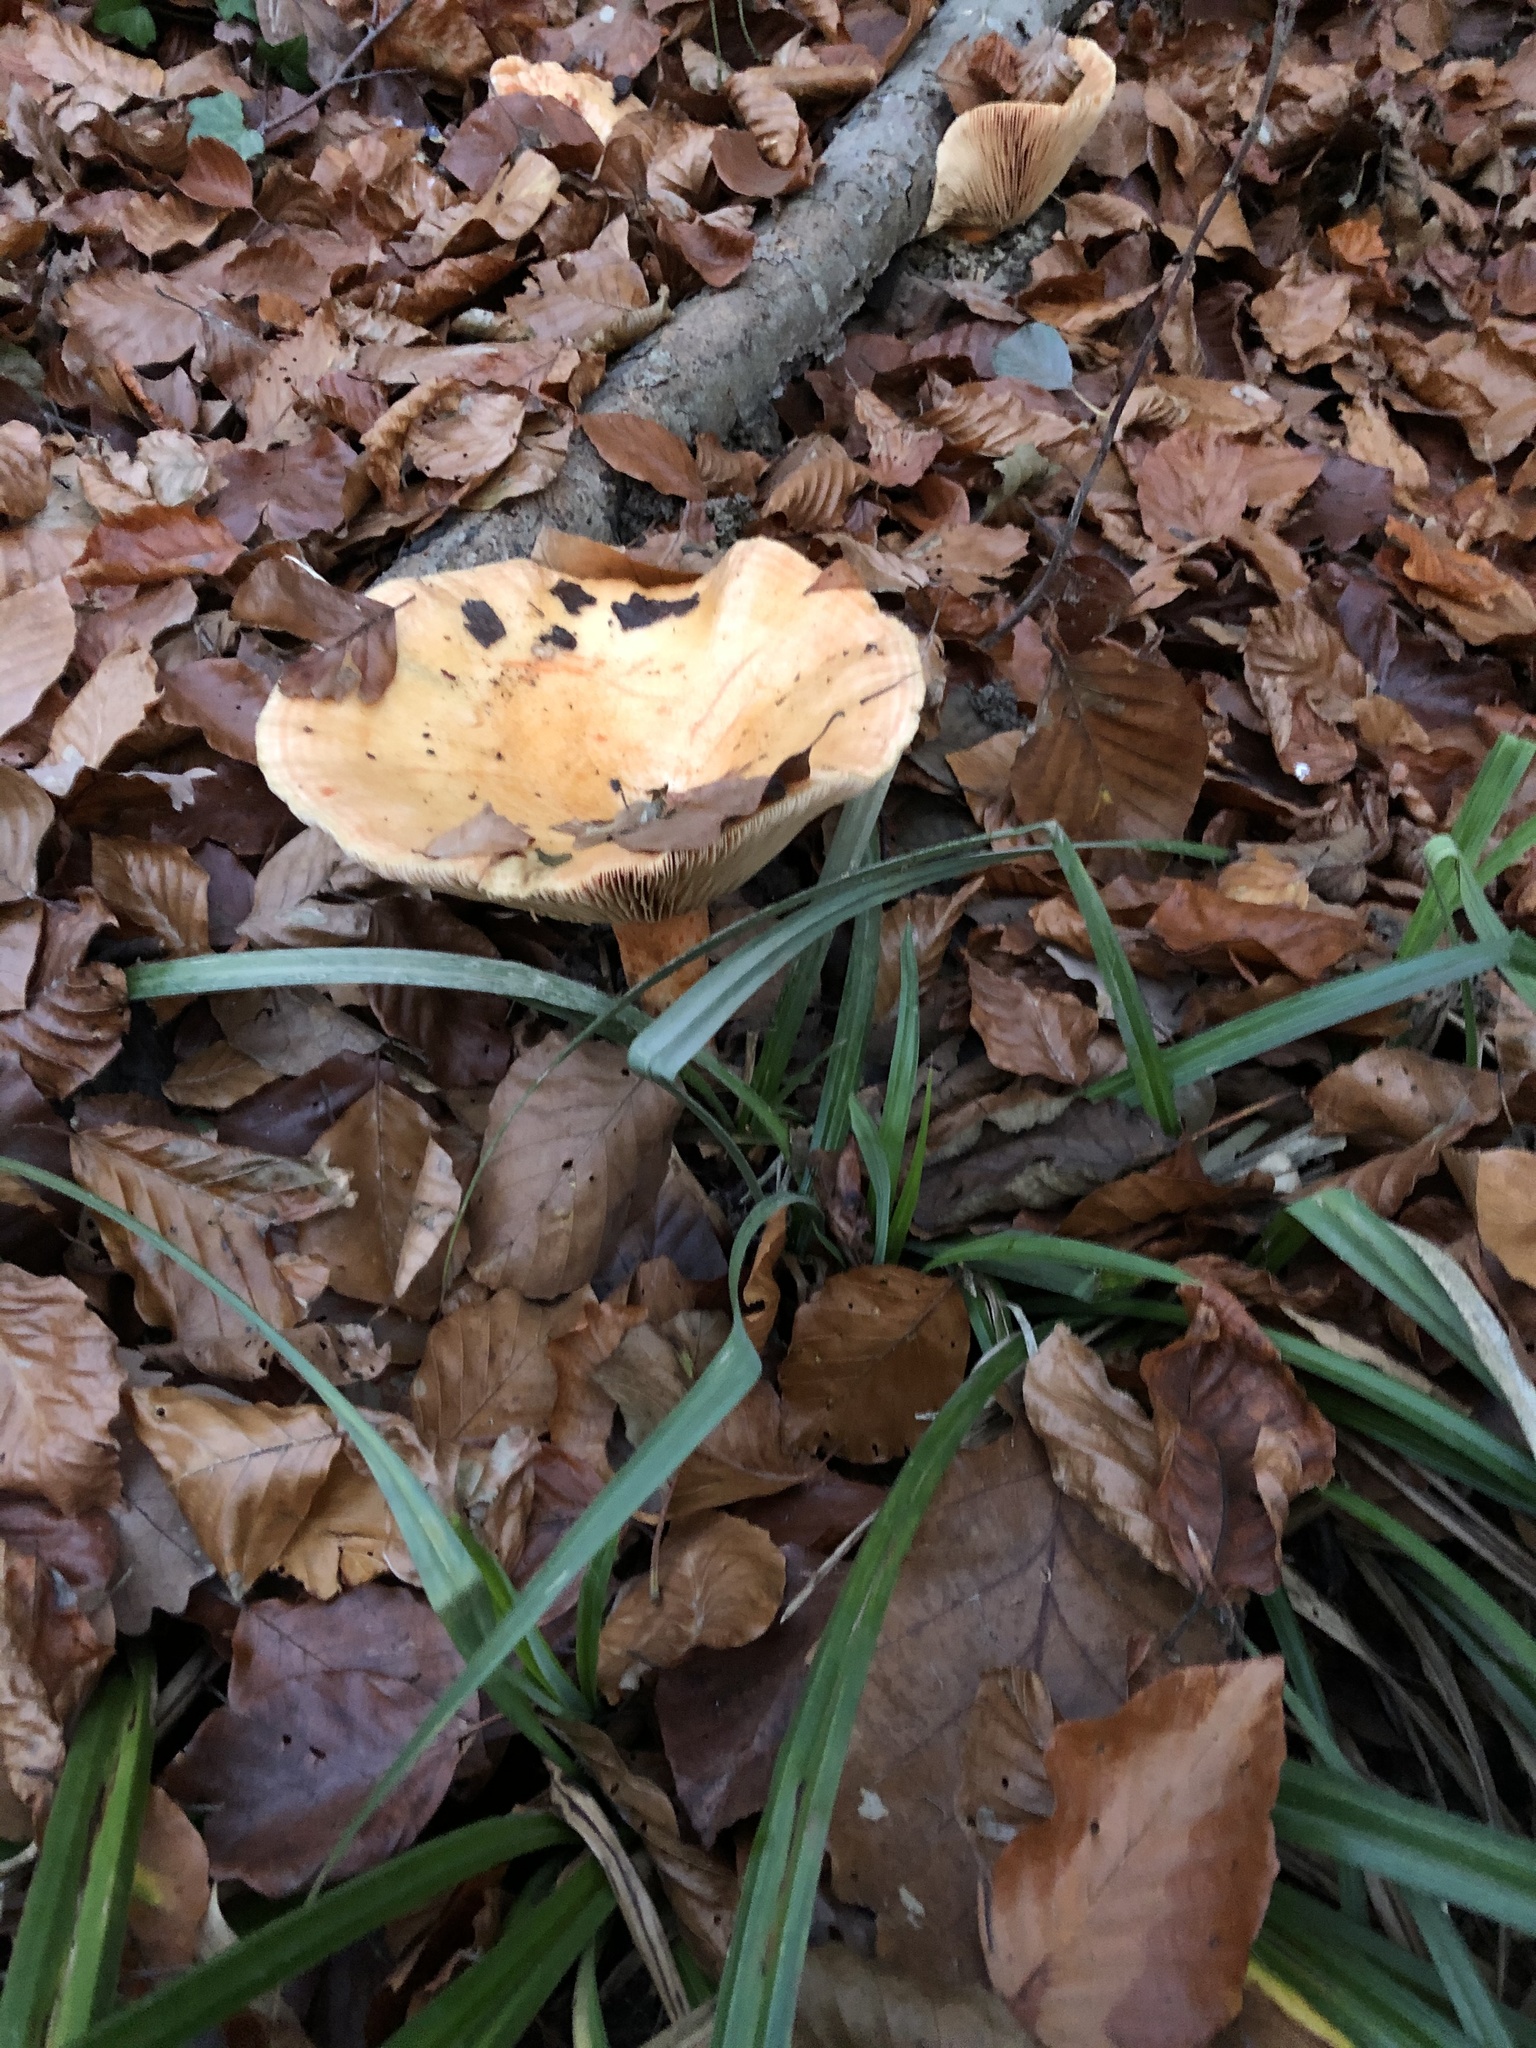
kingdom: Fungi
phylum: Basidiomycota
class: Agaricomycetes
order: Russulales
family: Russulaceae
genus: Lactarius
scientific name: Lactarius deterrimus
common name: False saffron milkcap
